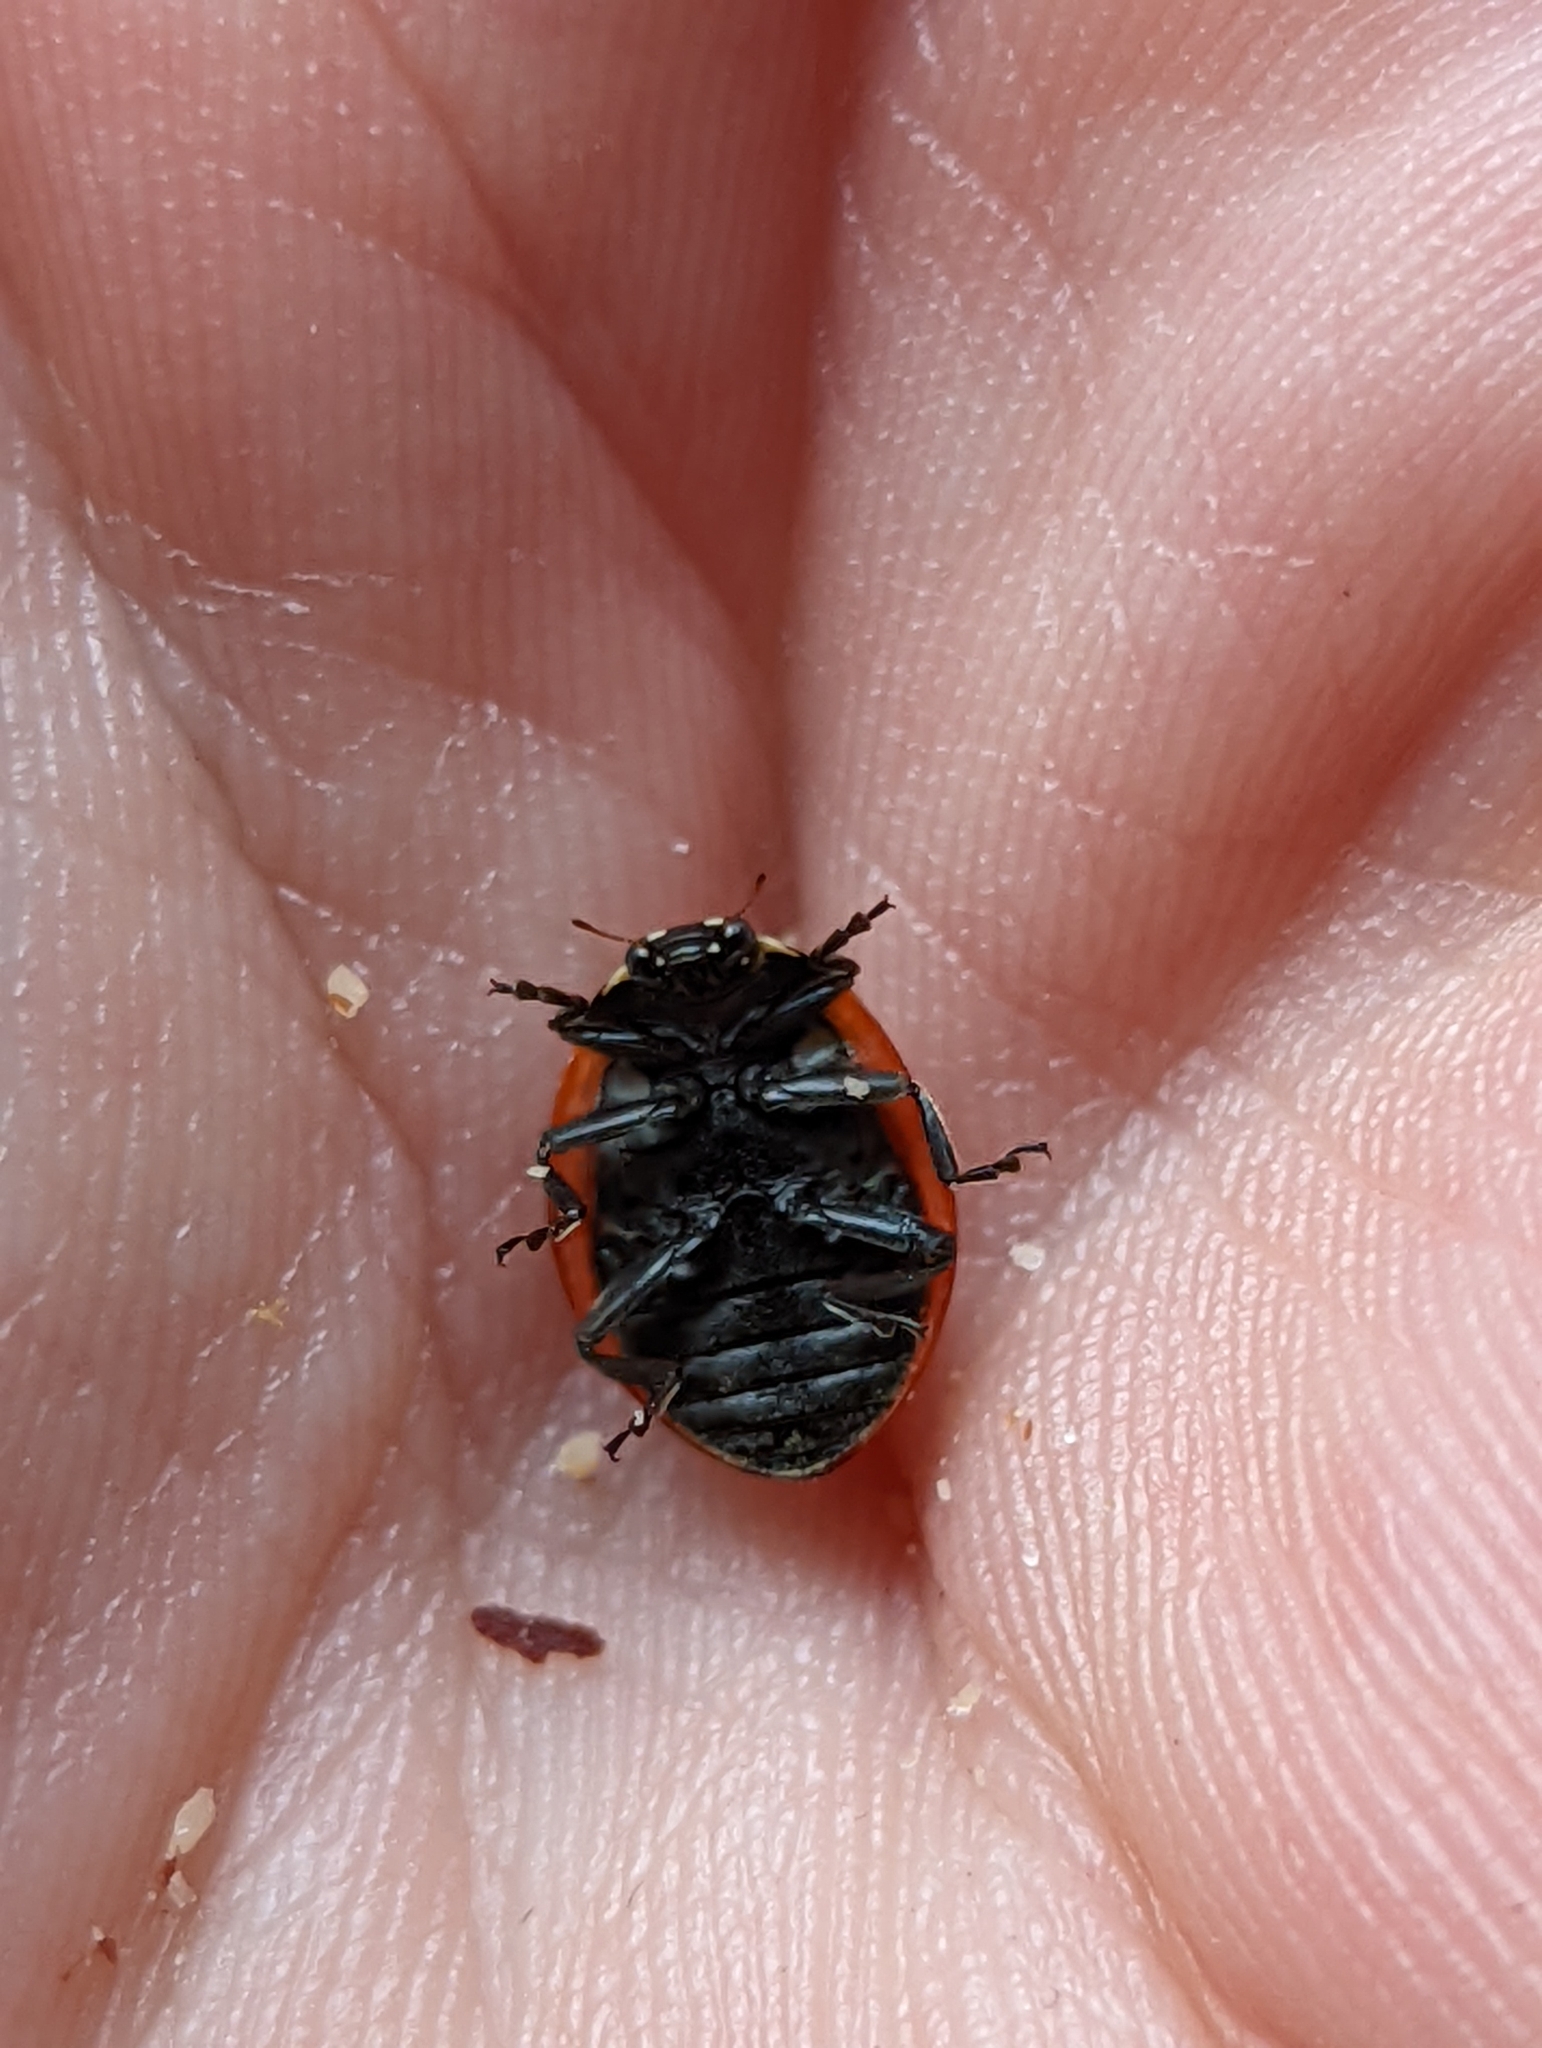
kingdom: Animalia
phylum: Arthropoda
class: Insecta
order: Coleoptera
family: Coccinellidae
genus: Coccinella
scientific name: Coccinella septempunctata
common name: Sevenspotted lady beetle
